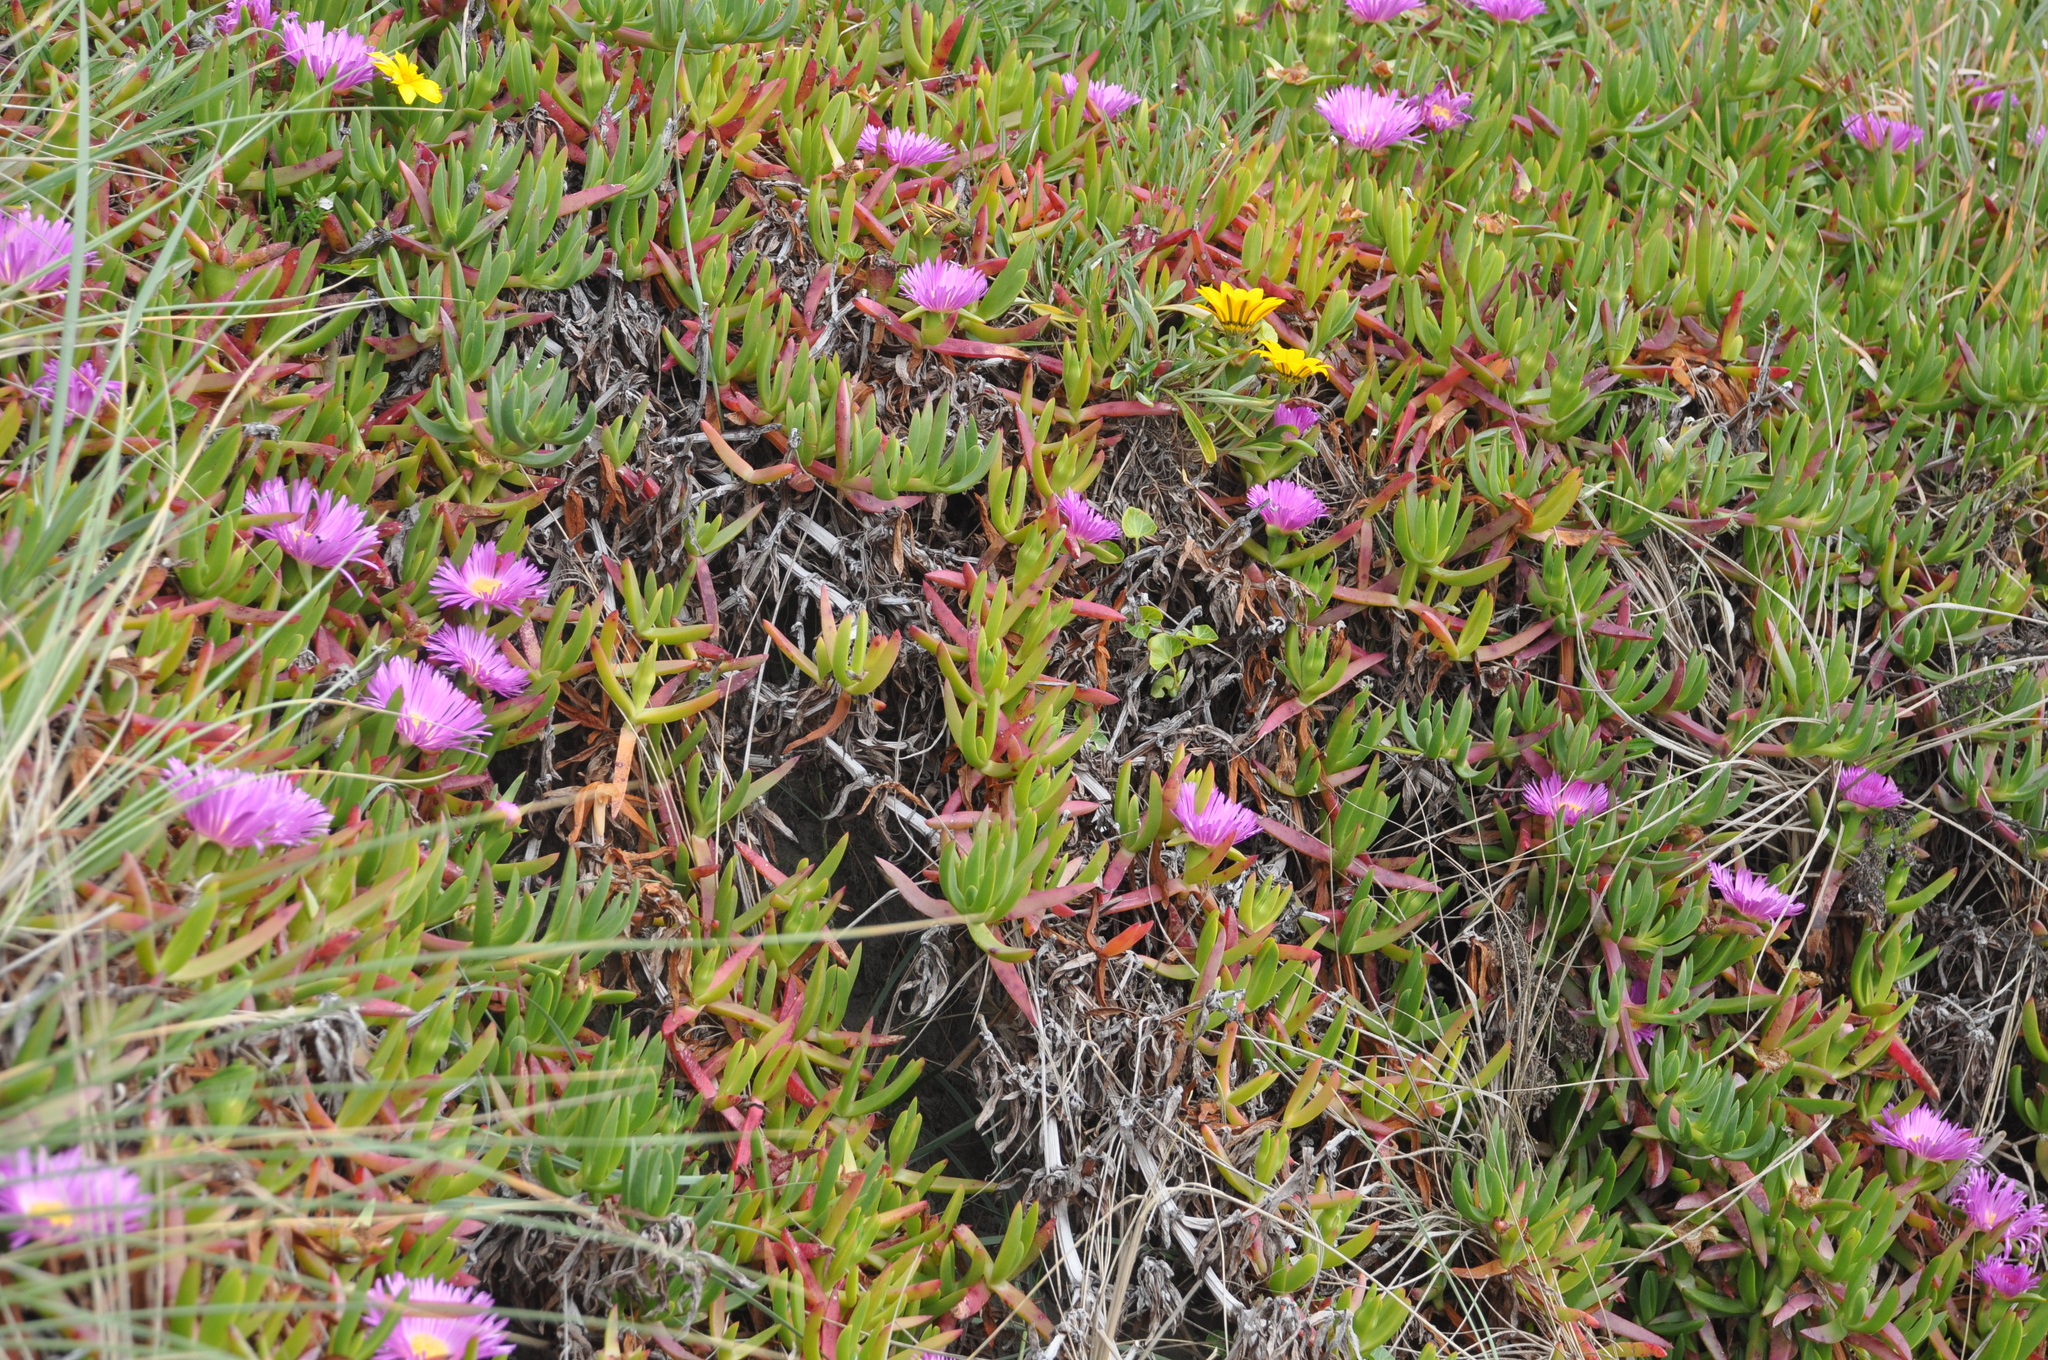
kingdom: Plantae
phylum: Tracheophyta
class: Magnoliopsida
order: Caryophyllales
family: Aizoaceae
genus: Carpobrotus
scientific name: Carpobrotus edulis
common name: Hottentot-fig
